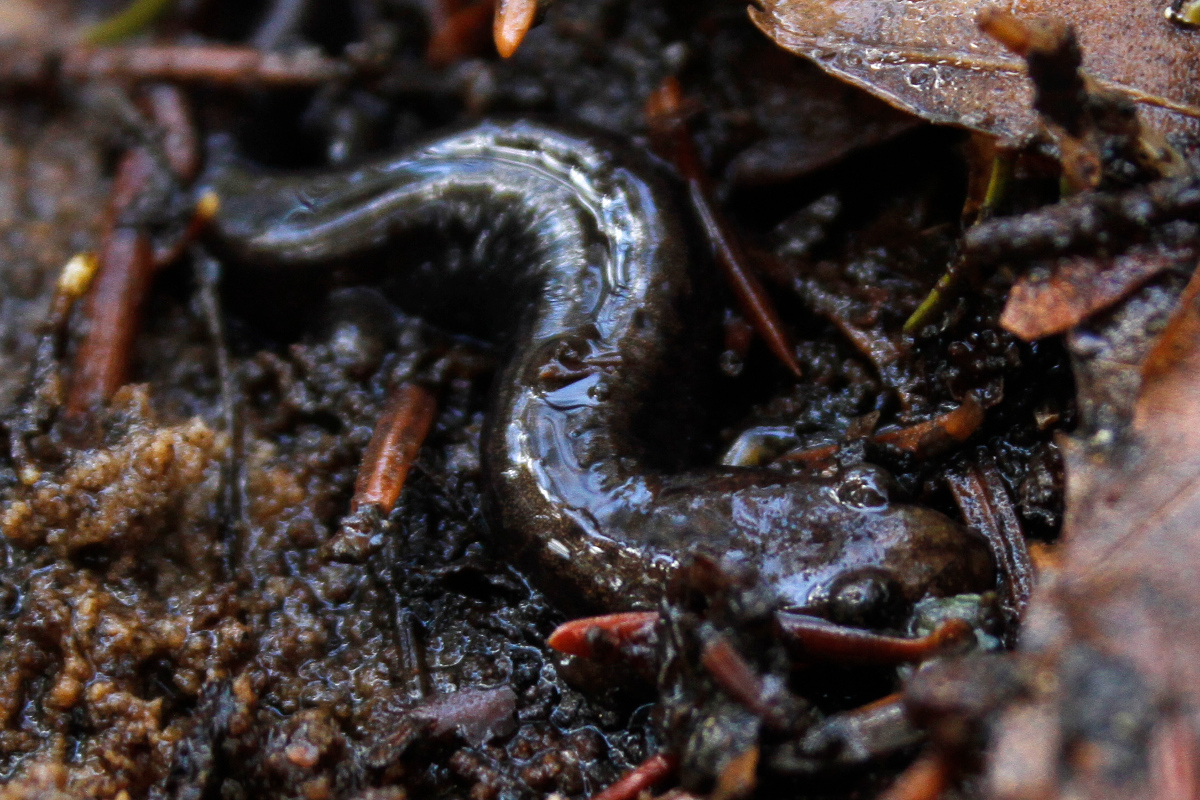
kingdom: Animalia
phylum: Chordata
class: Amphibia
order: Caudata
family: Plethodontidae
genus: Desmognathus
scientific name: Desmognathus ochrophaeus
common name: Allegheny mountain dusky salamander
